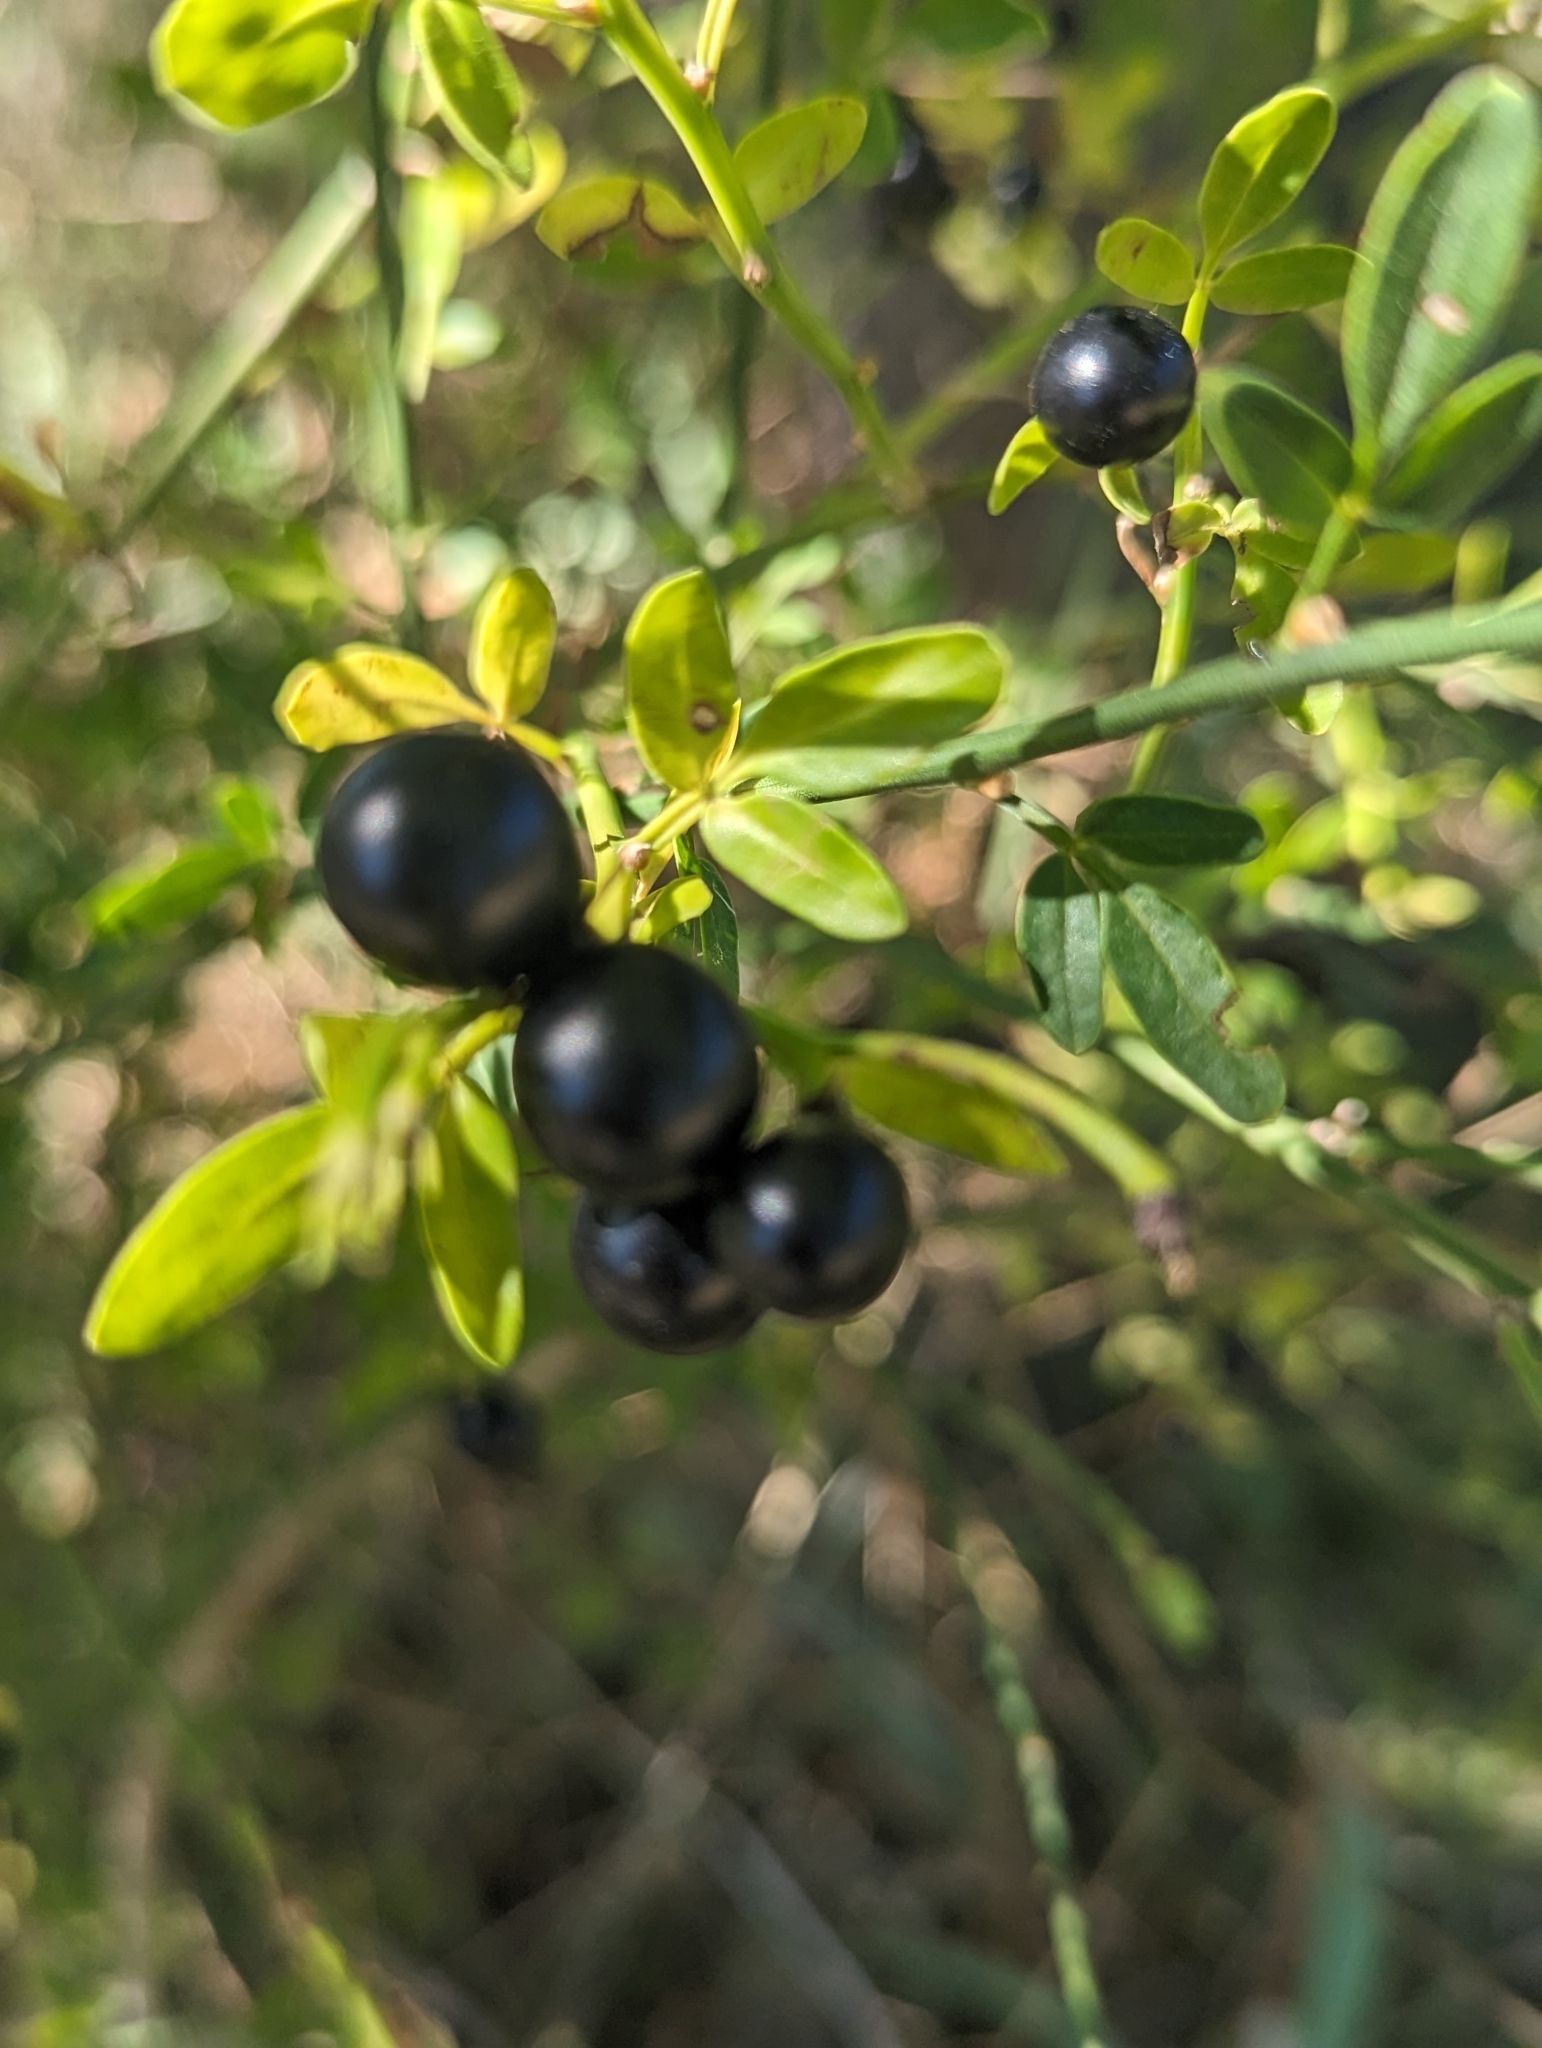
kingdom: Plantae
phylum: Tracheophyta
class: Magnoliopsida
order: Lamiales
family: Oleaceae
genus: Chrysojasminum
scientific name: Chrysojasminum fruticans
